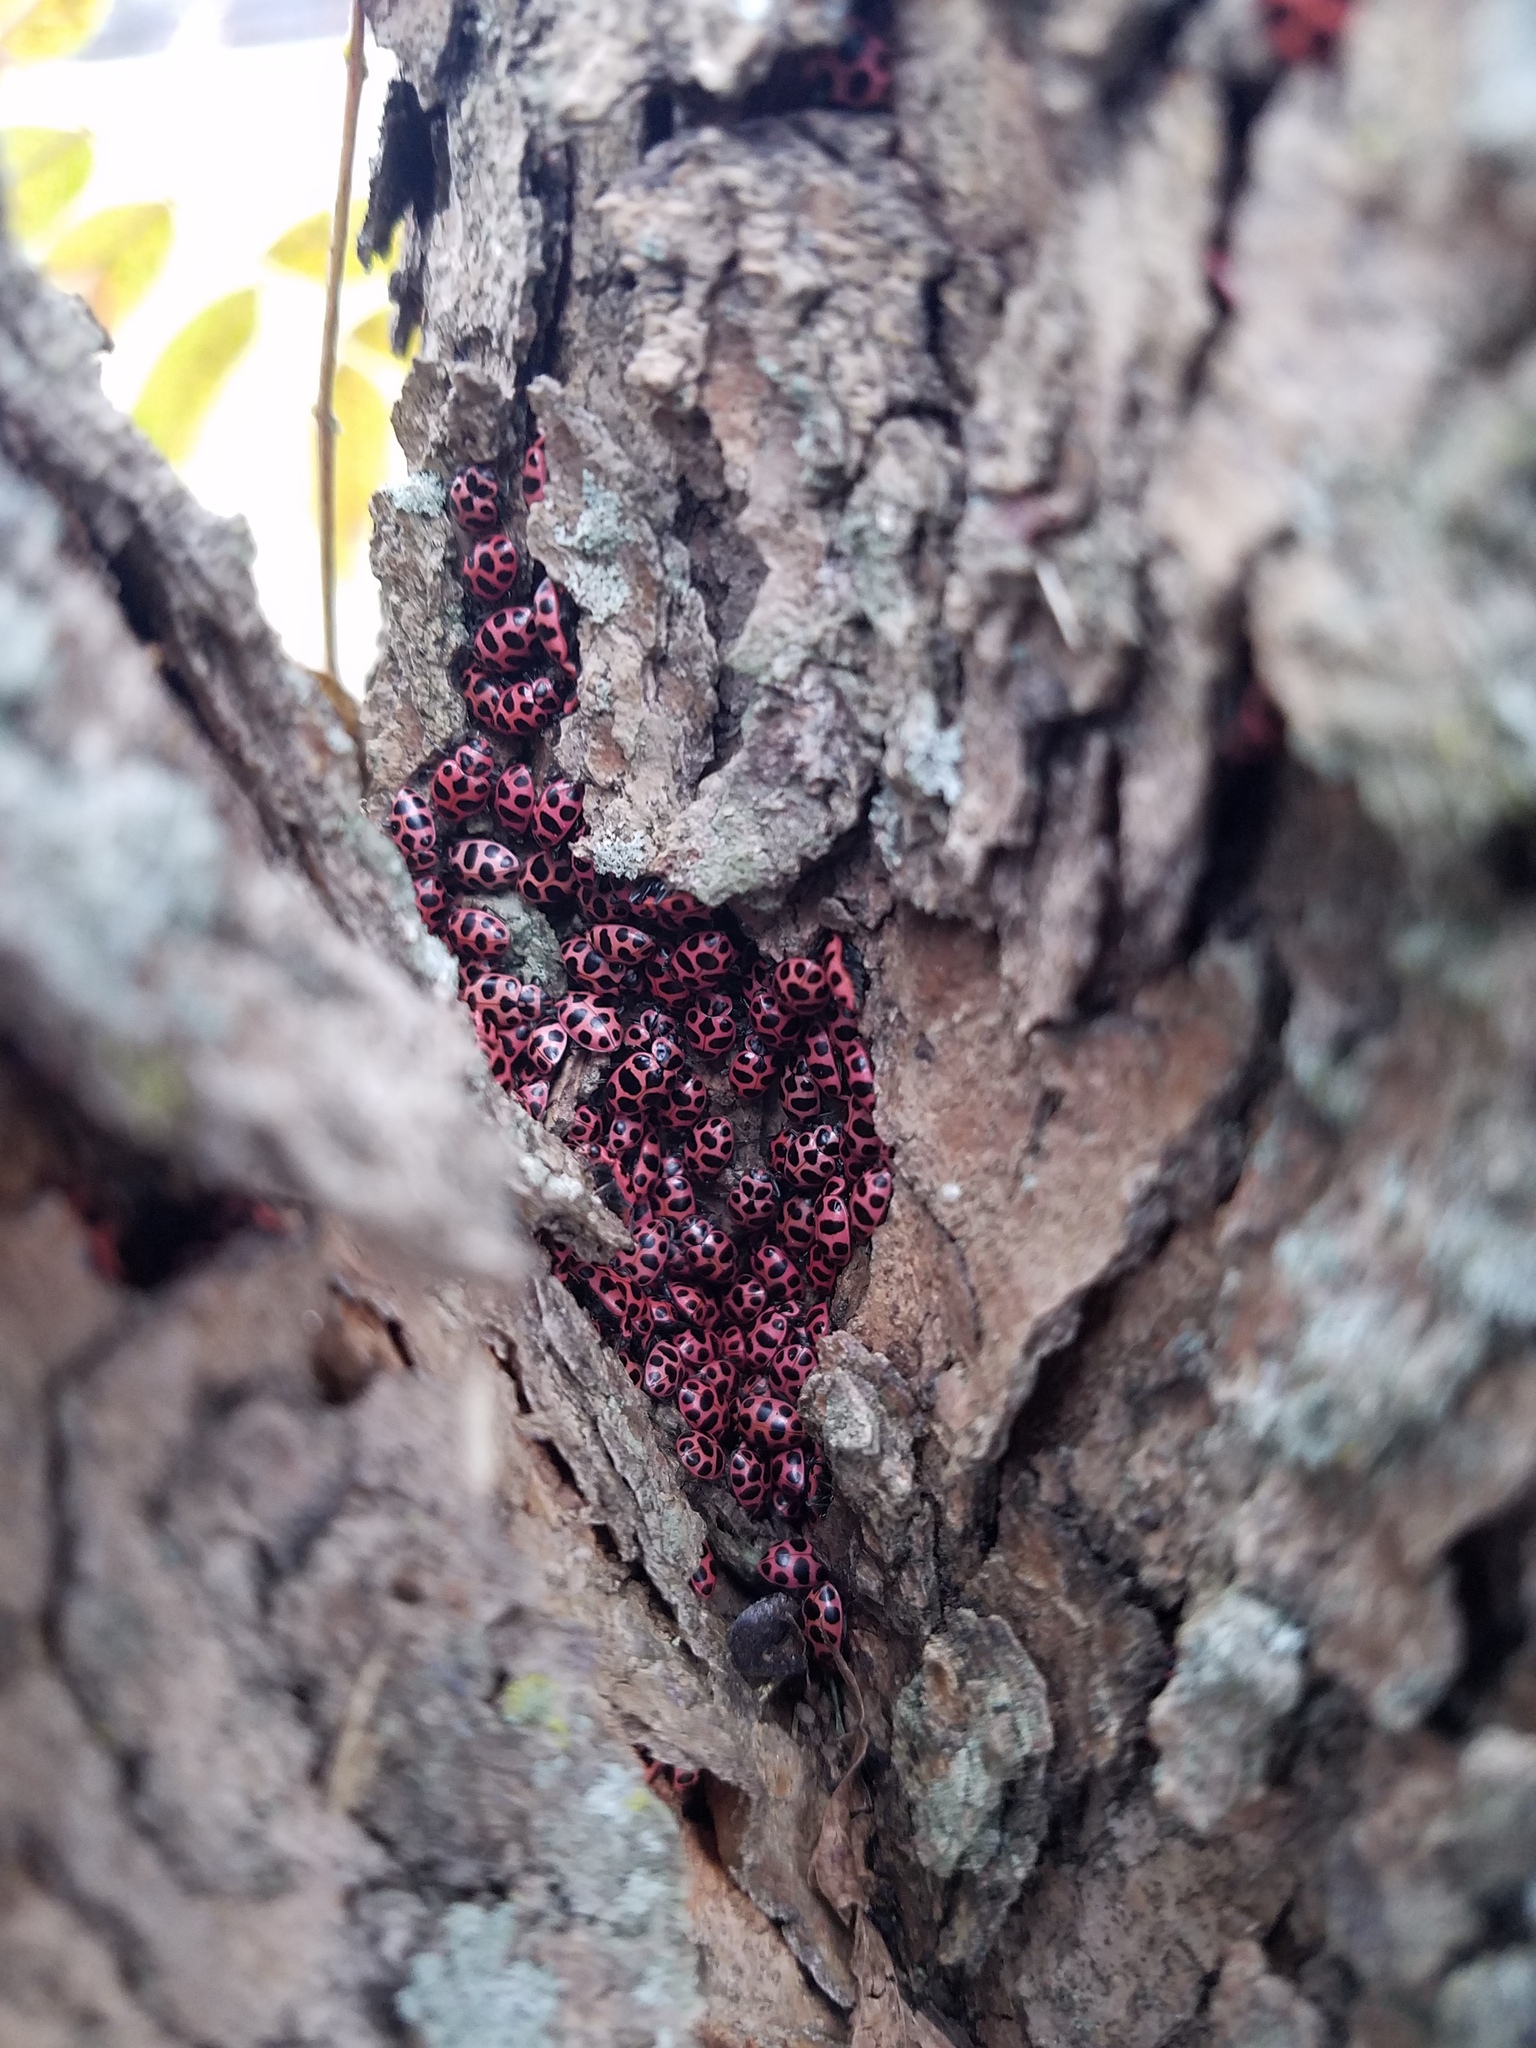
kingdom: Animalia
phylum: Arthropoda
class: Insecta
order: Coleoptera
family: Coccinellidae
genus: Coleomegilla
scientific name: Coleomegilla maculata
